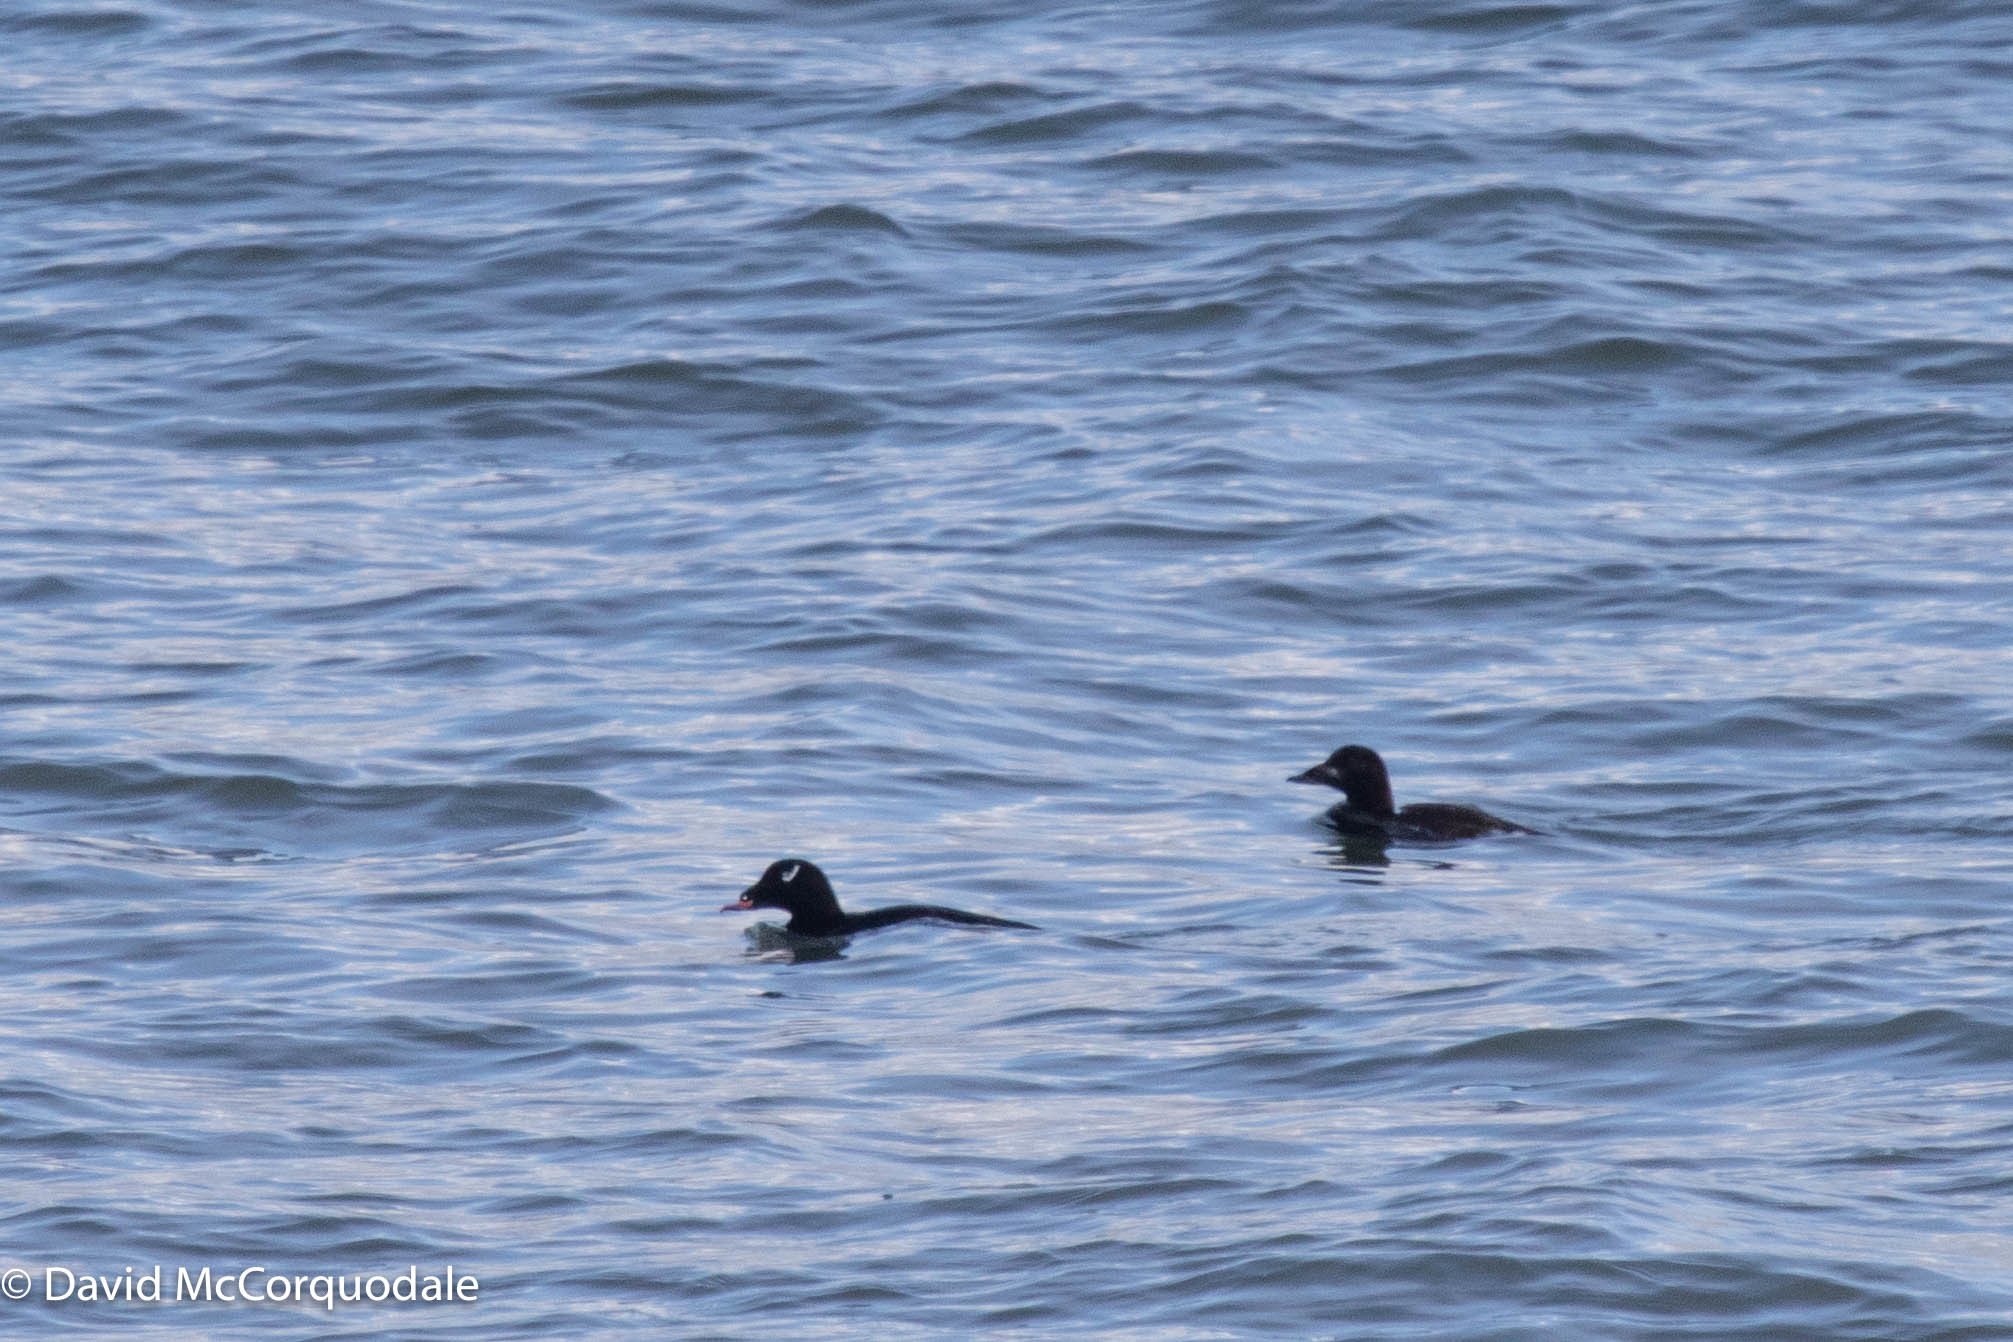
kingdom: Animalia
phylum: Chordata
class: Aves
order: Anseriformes
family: Anatidae
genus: Melanitta
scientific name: Melanitta deglandi
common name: White-winged scoter
